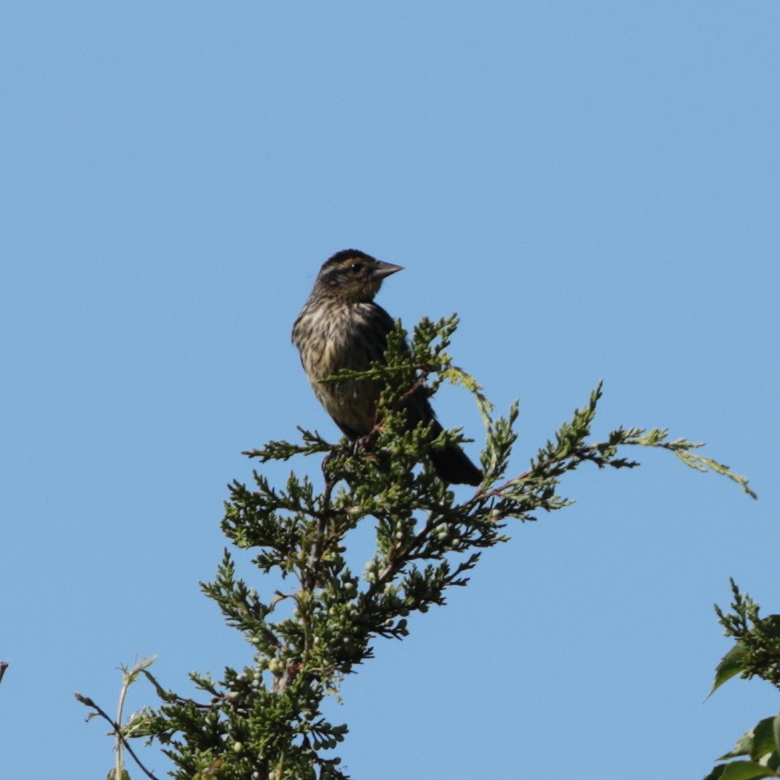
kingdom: Animalia
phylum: Chordata
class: Aves
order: Passeriformes
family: Icteridae
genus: Agelaius
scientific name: Agelaius phoeniceus
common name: Red-winged blackbird
